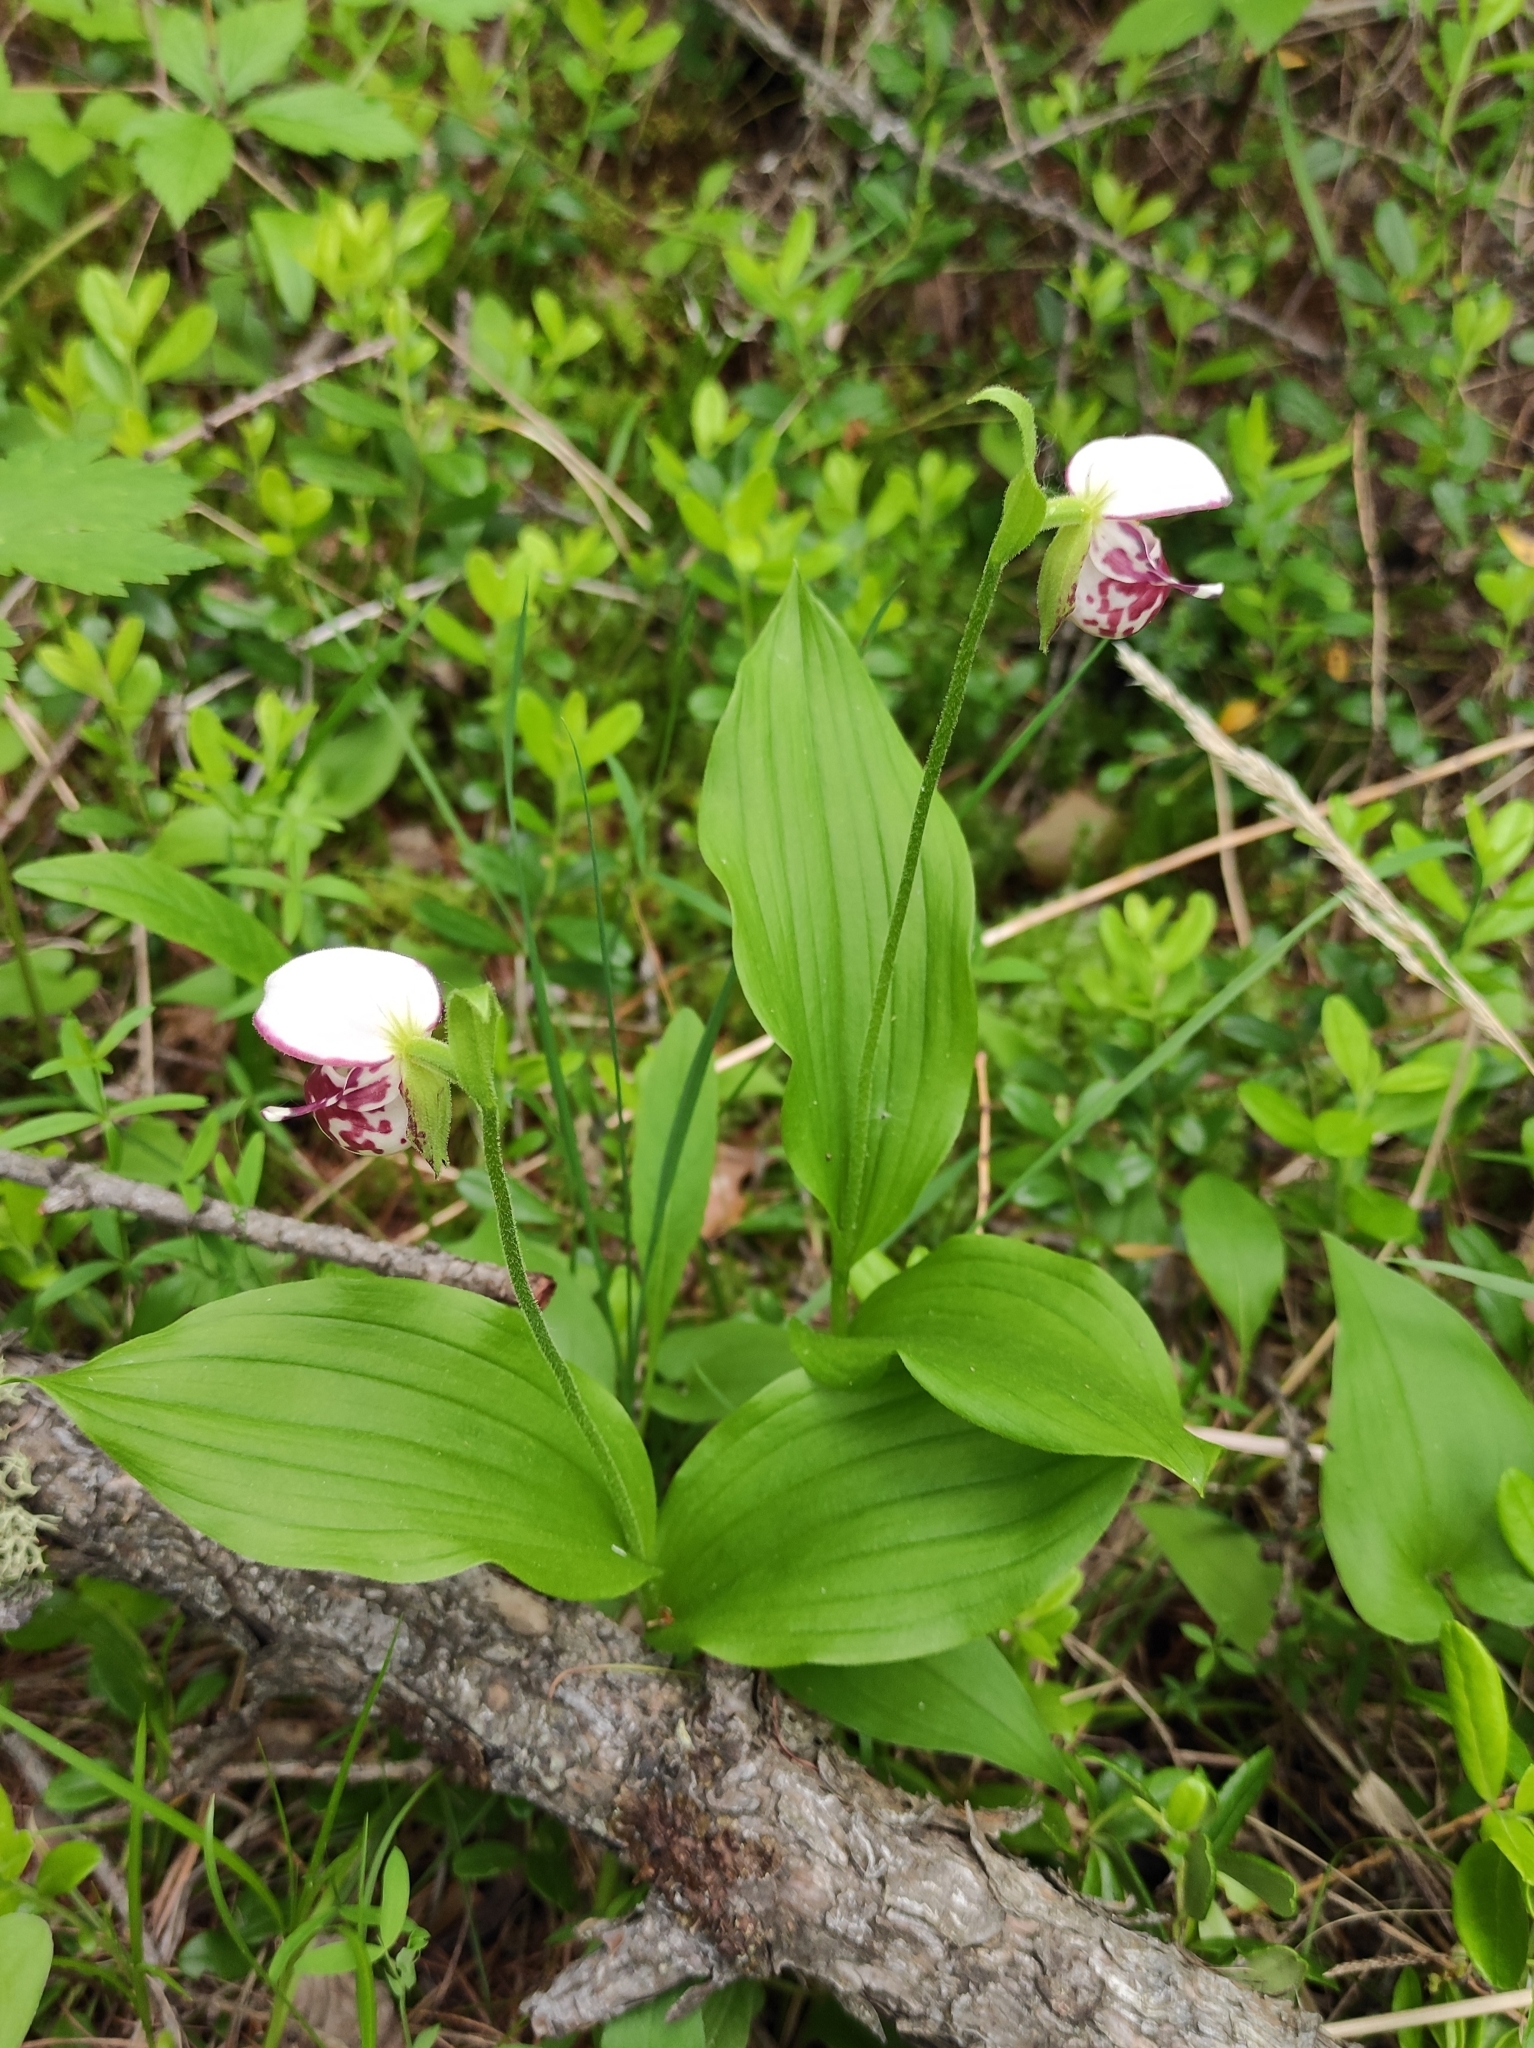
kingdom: Plantae
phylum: Tracheophyta
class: Liliopsida
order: Asparagales
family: Orchidaceae
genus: Cypripedium
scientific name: Cypripedium guttatum
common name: Pink lady slipper
